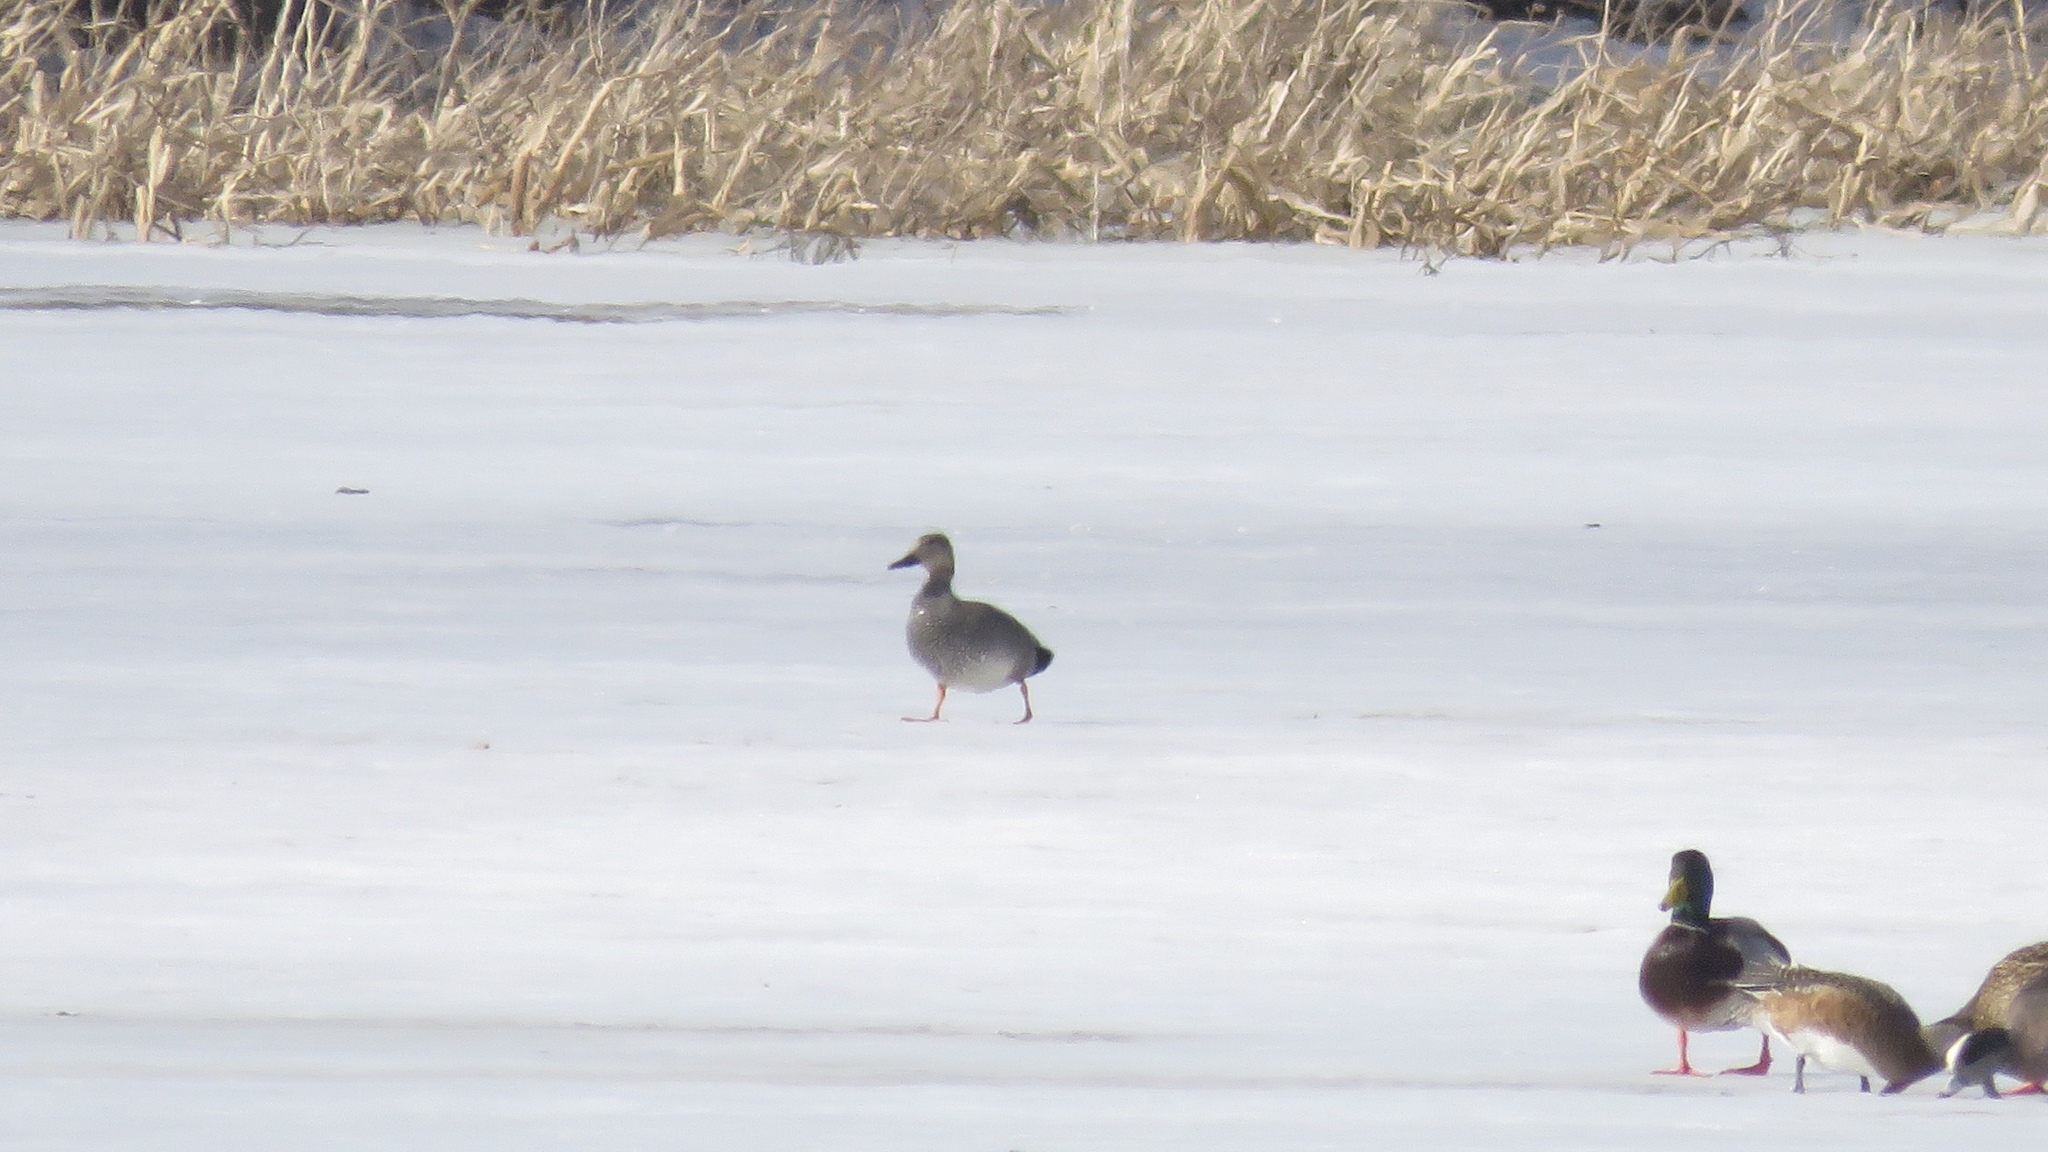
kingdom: Animalia
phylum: Chordata
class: Aves
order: Anseriformes
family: Anatidae
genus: Mareca
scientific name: Mareca strepera
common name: Gadwall
